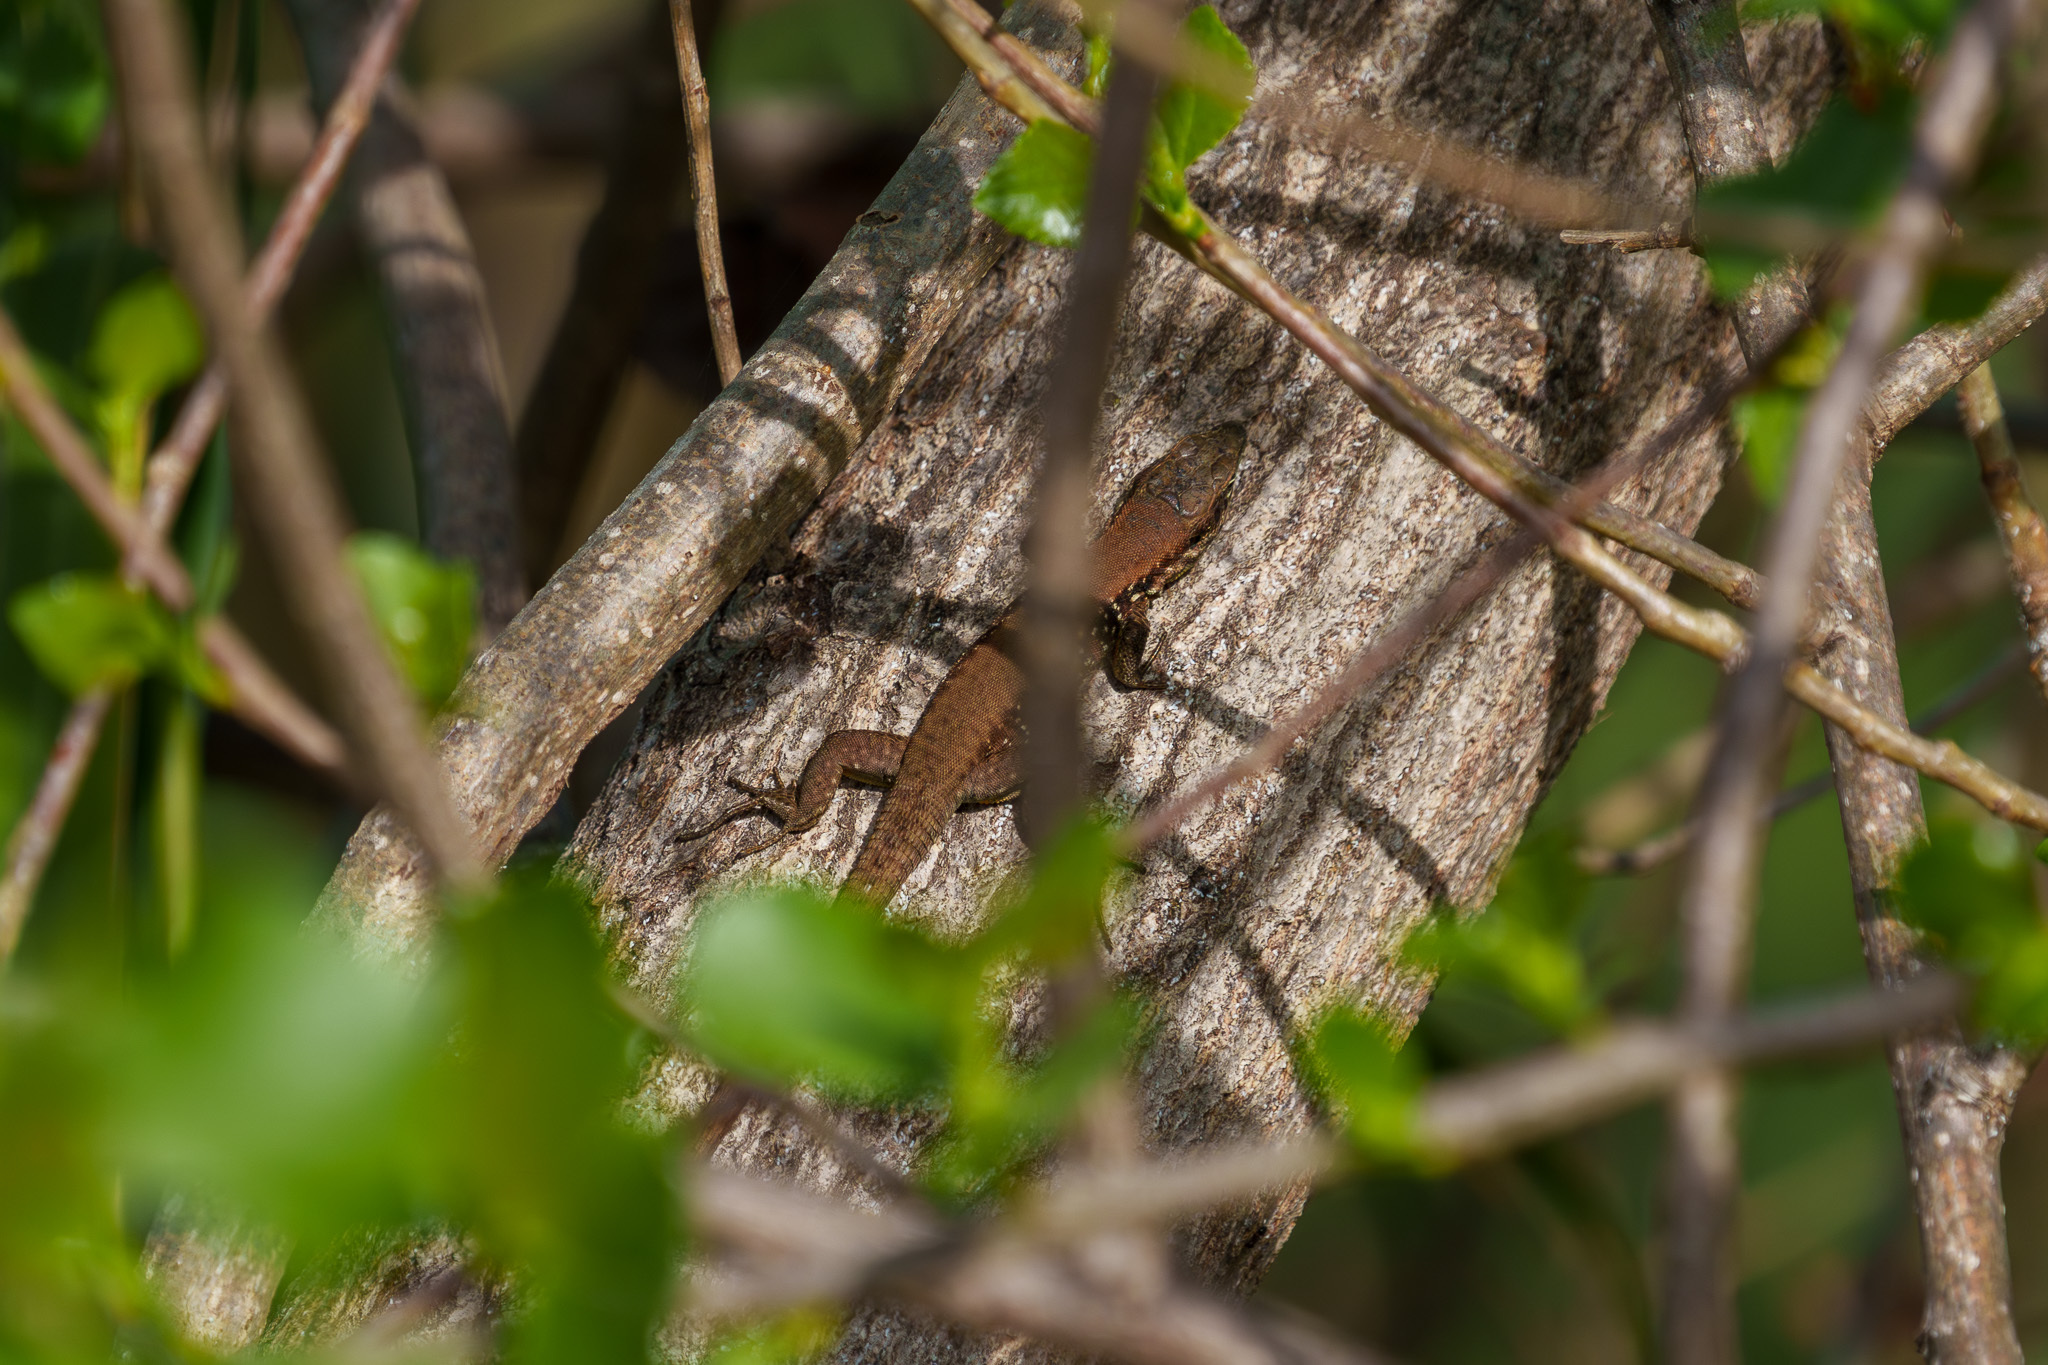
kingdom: Animalia
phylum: Chordata
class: Squamata
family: Lacertidae
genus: Phoenicolacerta
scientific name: Phoenicolacerta laevis
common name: Lebanon lizard
